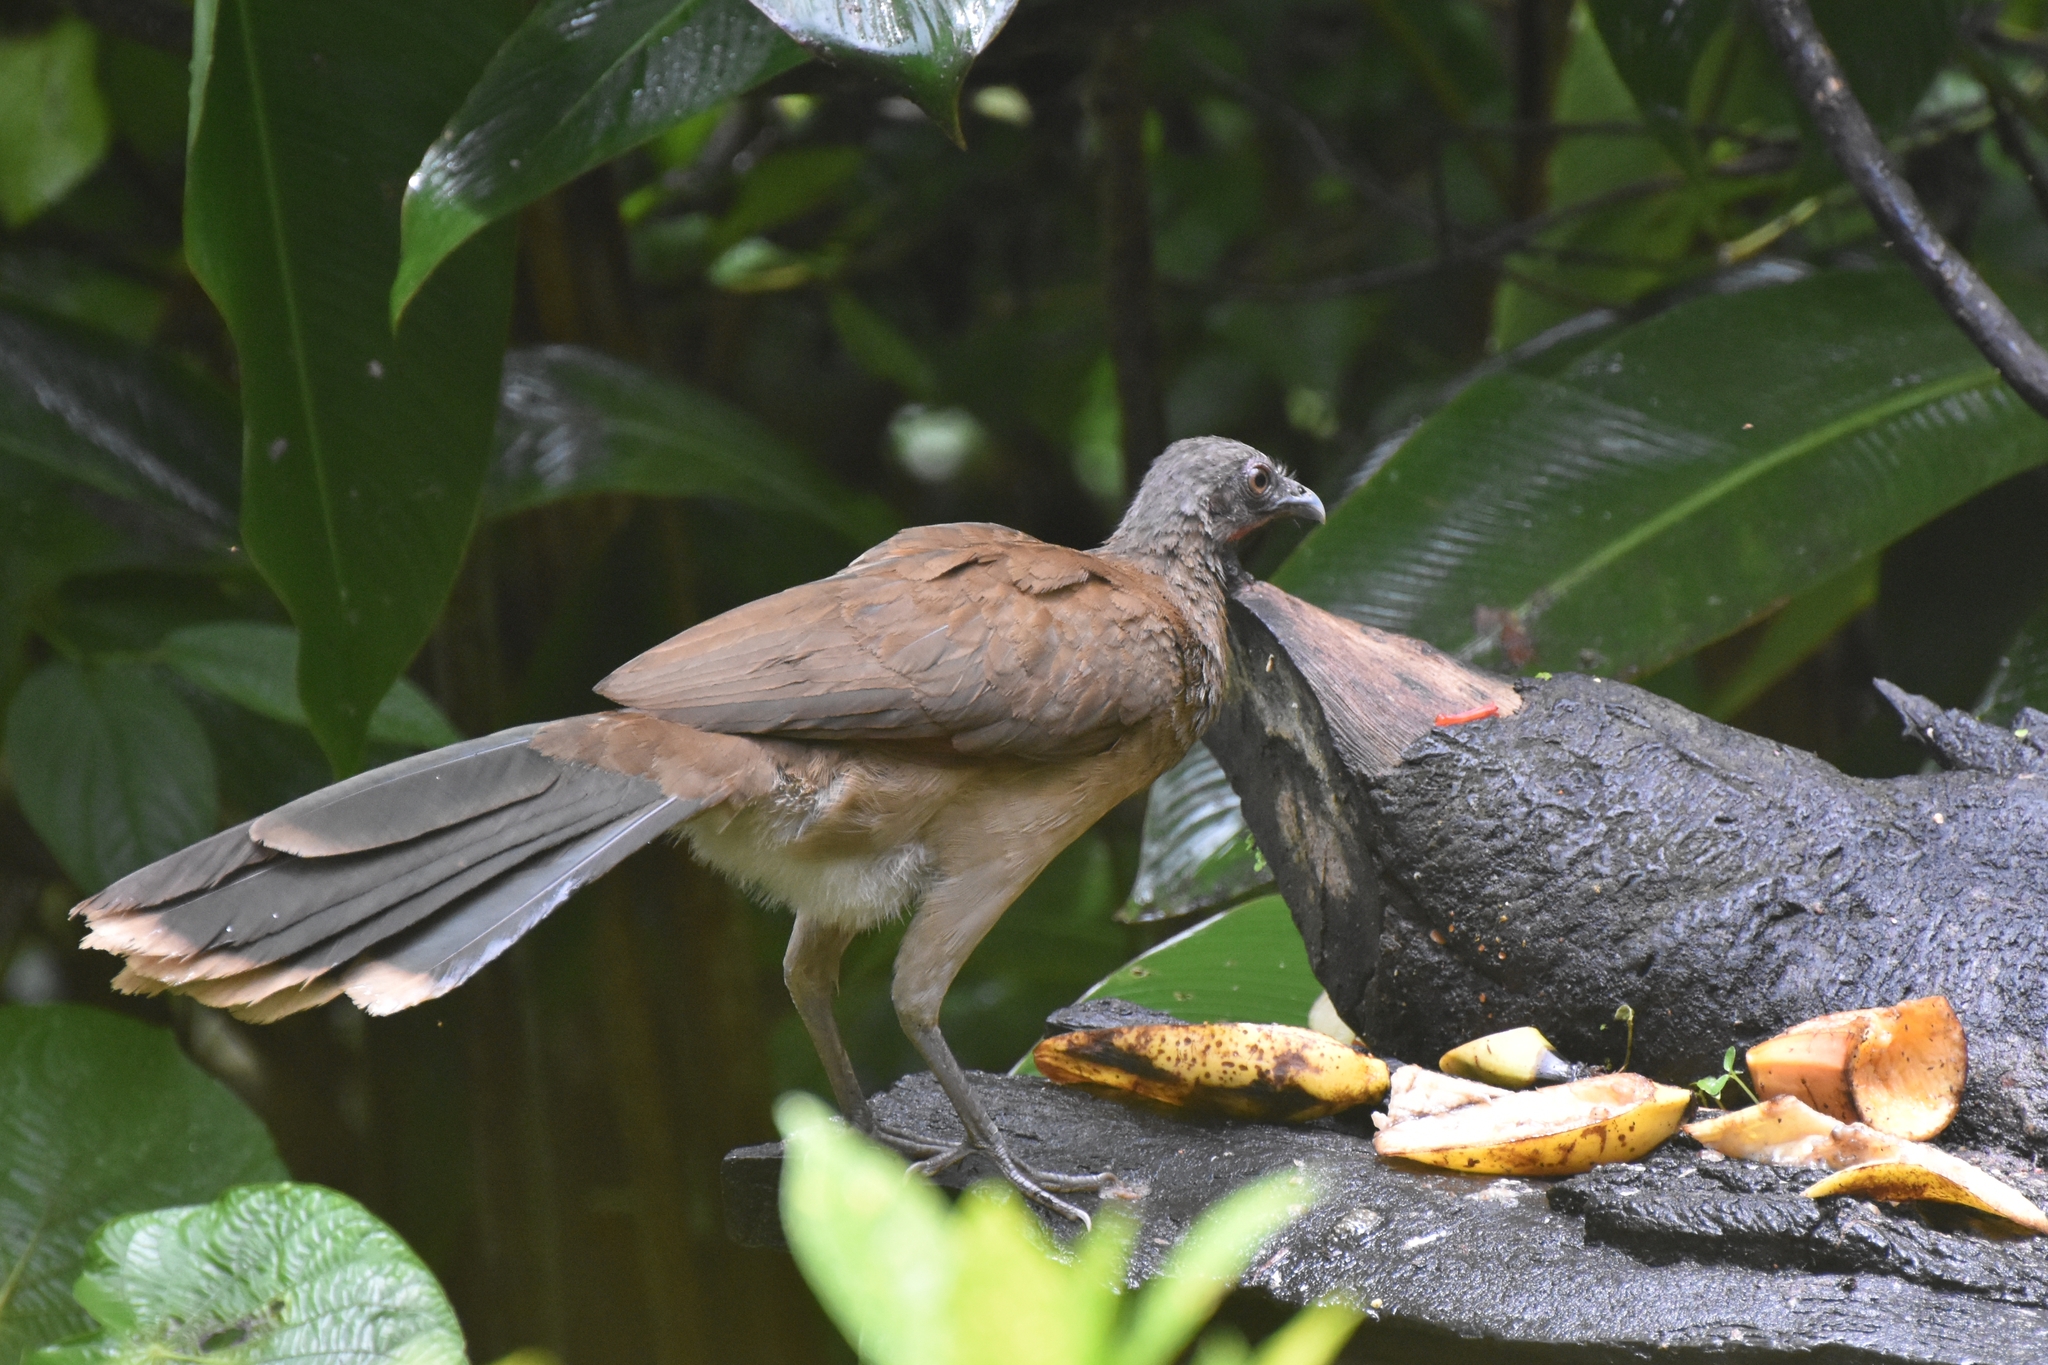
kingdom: Animalia
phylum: Chordata
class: Aves
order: Galliformes
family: Cracidae
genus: Ortalis
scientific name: Ortalis cinereiceps
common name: Grey-headed chachalaca
